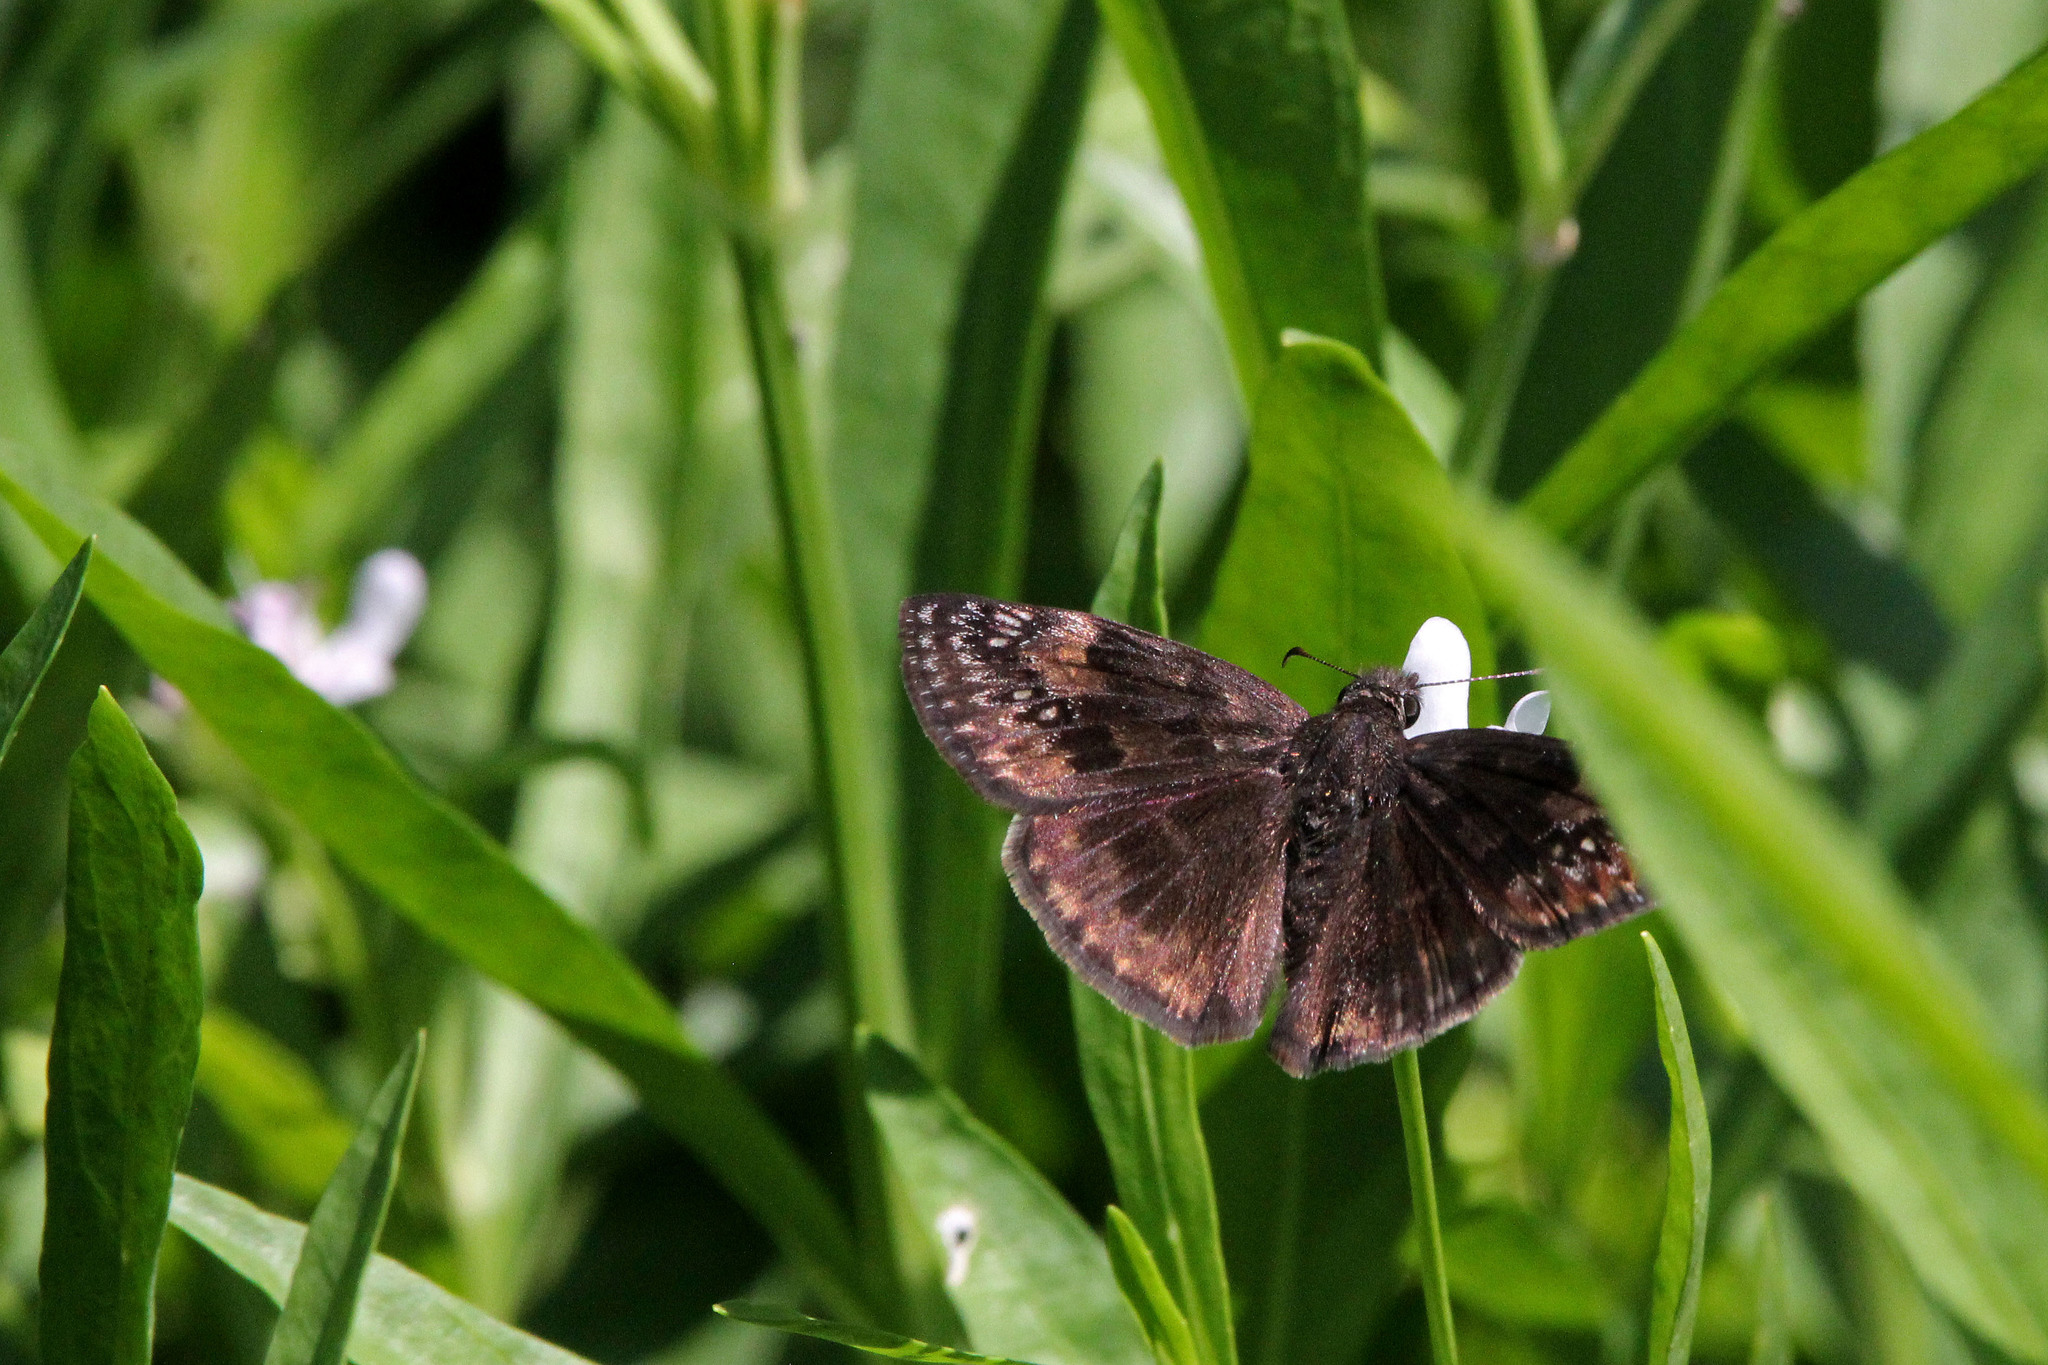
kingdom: Animalia
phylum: Arthropoda
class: Insecta
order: Lepidoptera
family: Hesperiidae
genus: Erynnis
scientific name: Erynnis baptisiae
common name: Wild indigo duskywing
